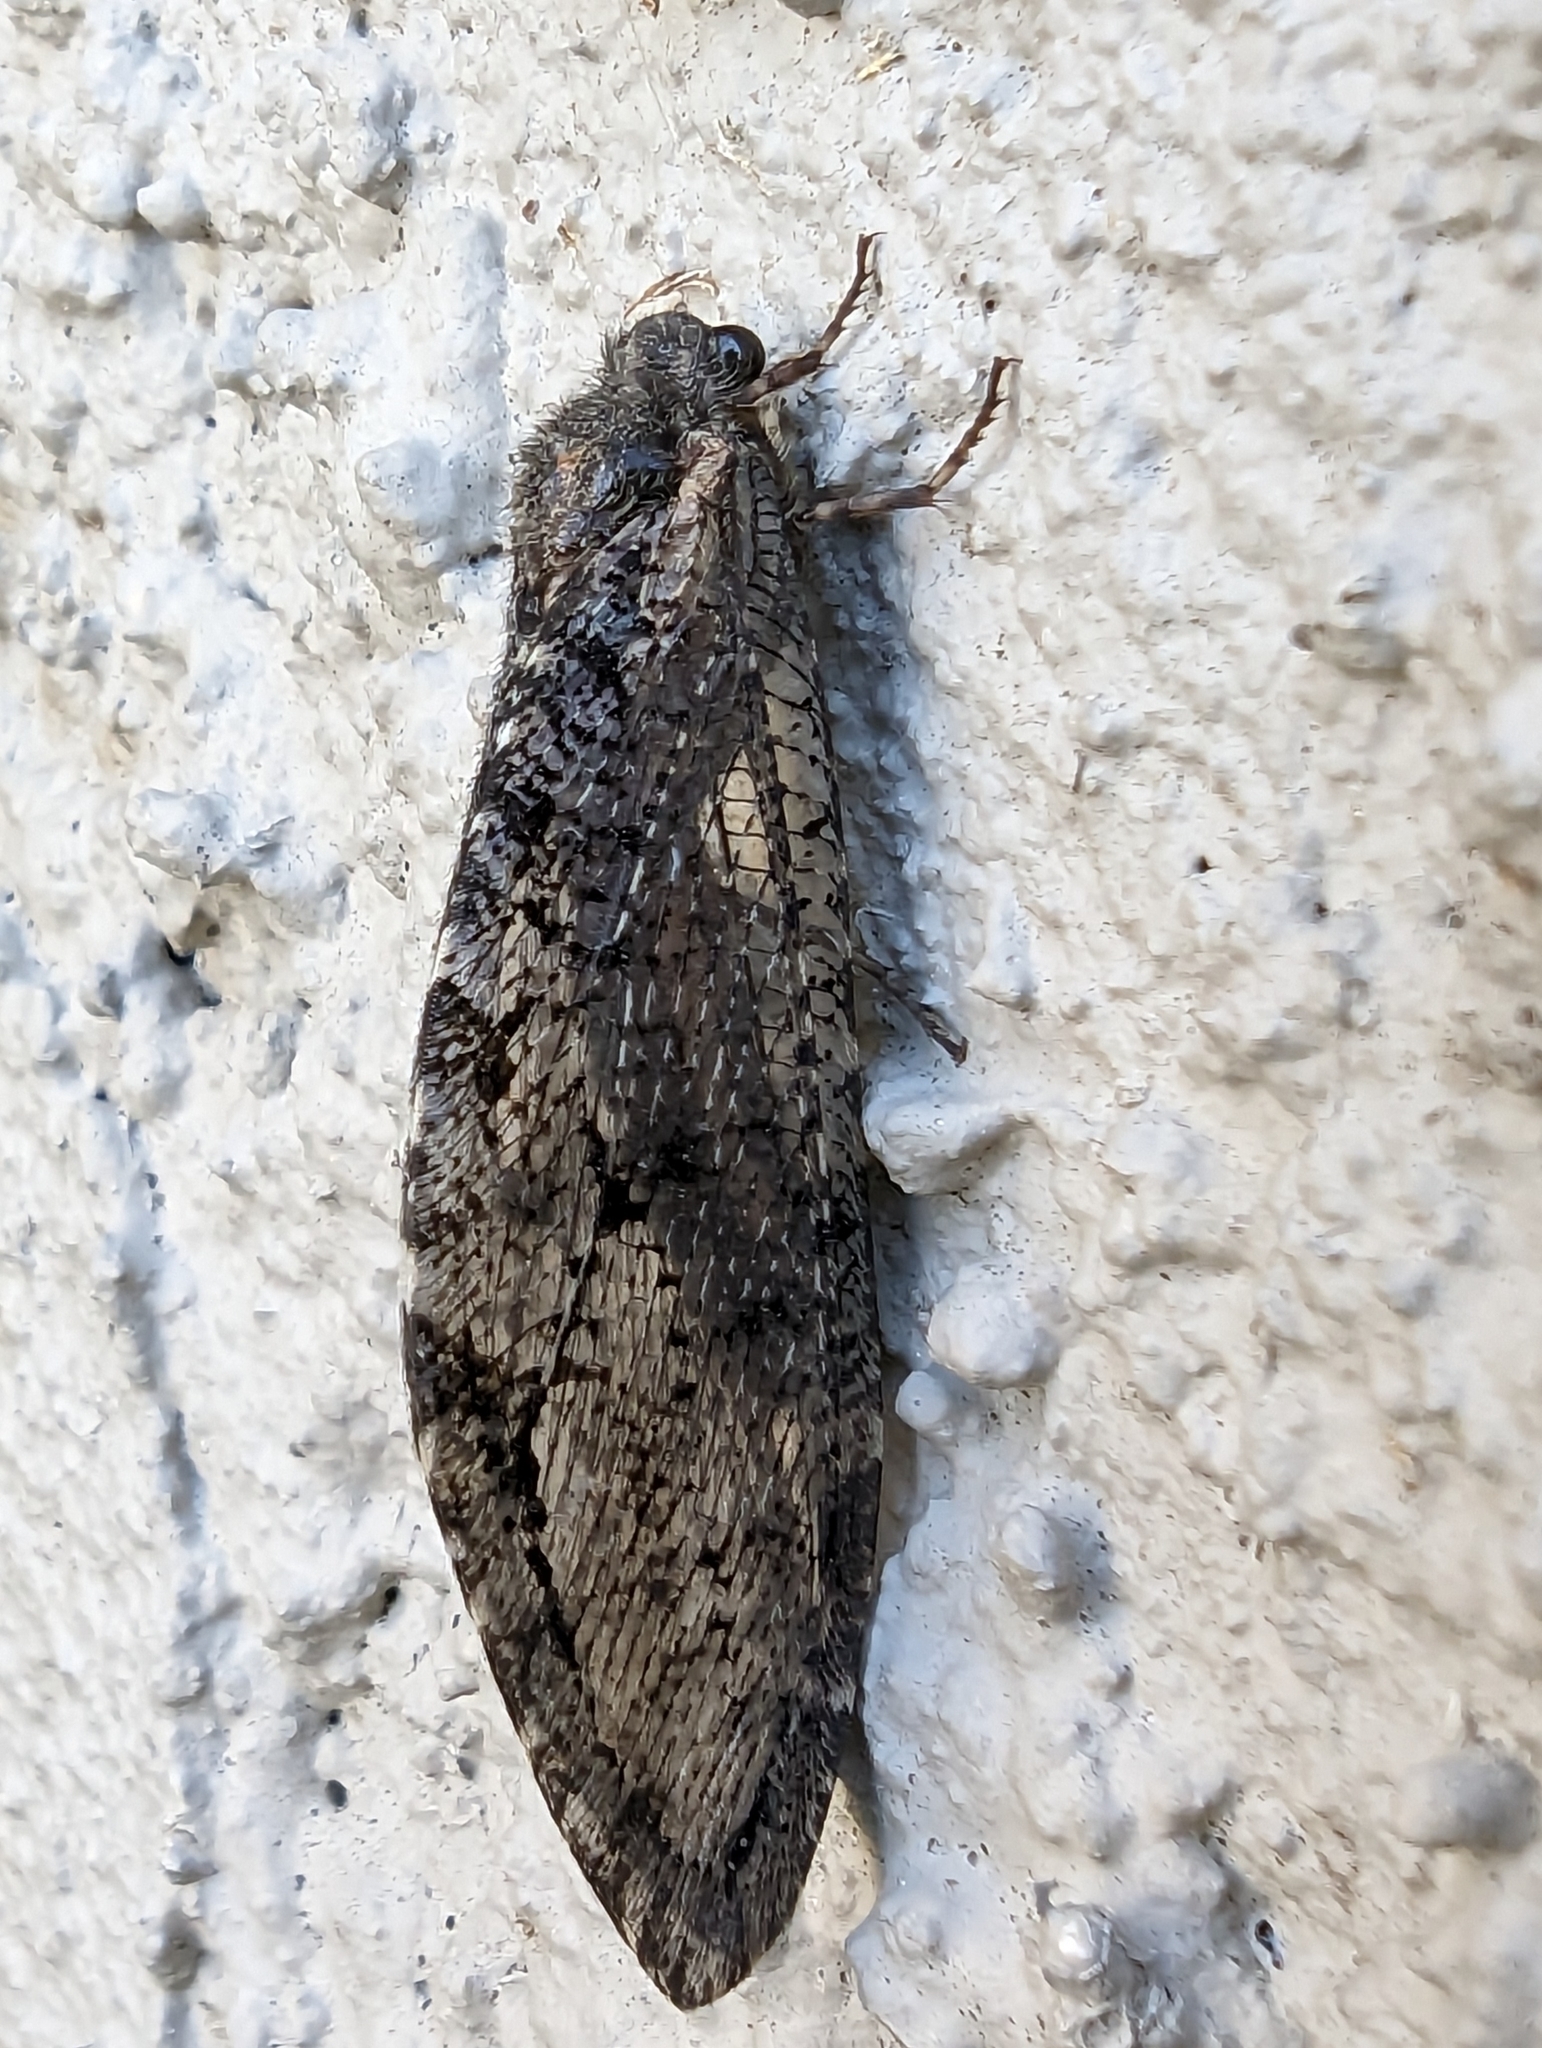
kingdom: Animalia
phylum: Arthropoda
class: Insecta
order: Neuroptera
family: Ithonidae
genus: Polystoechotes
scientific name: Polystoechotes punctata
